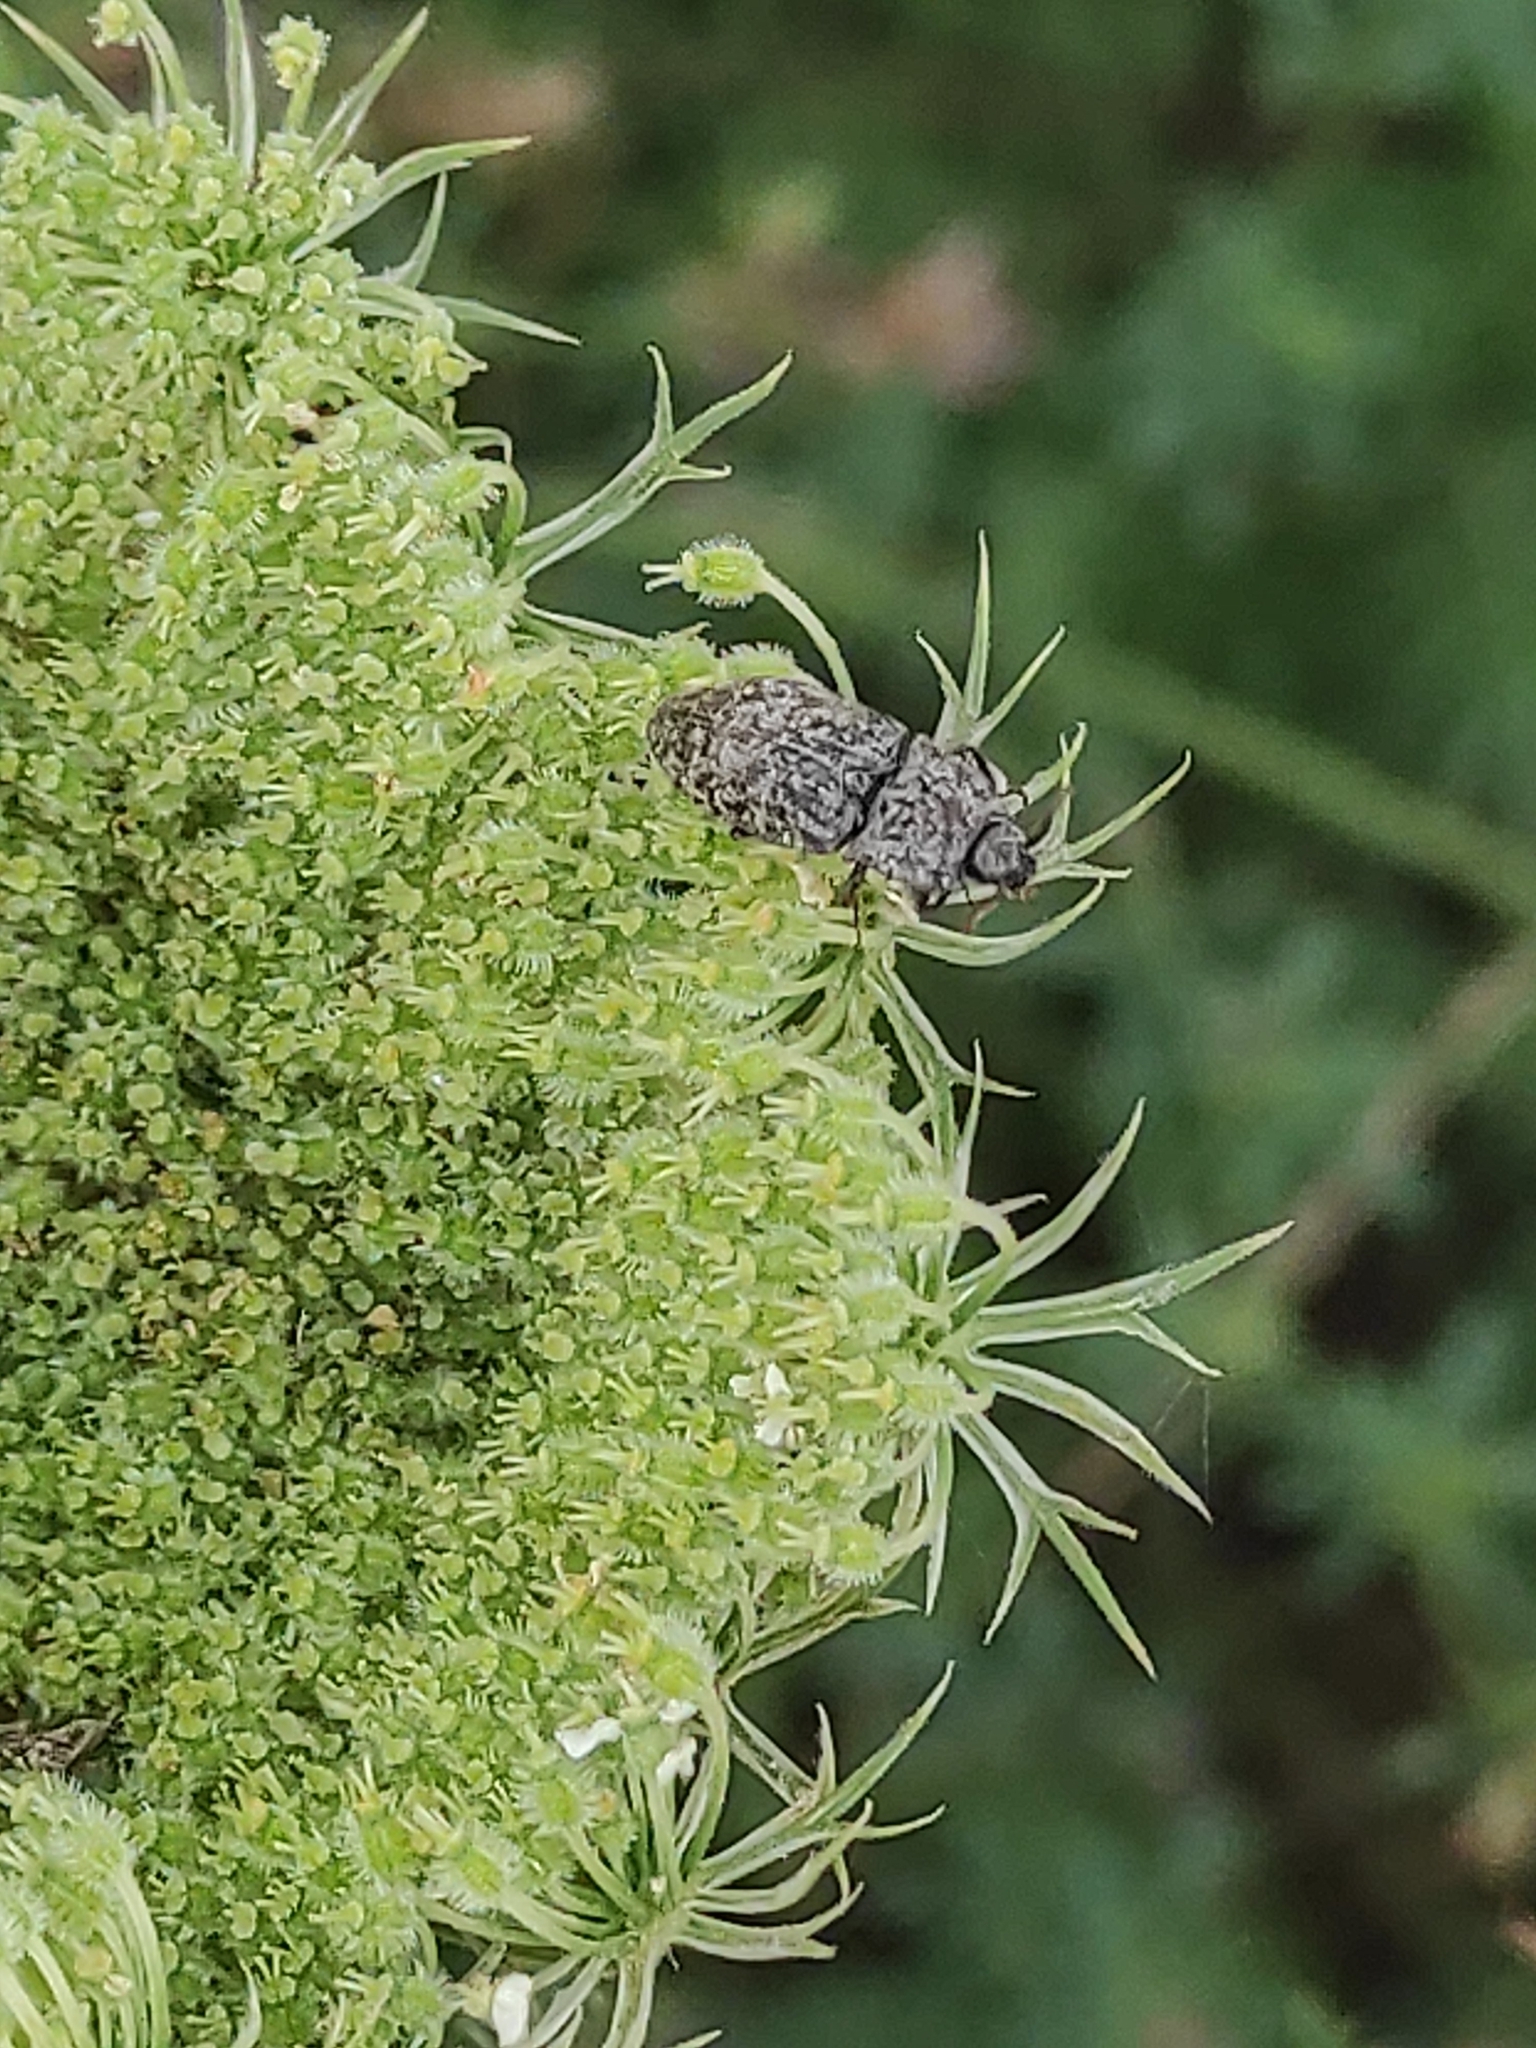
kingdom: Animalia
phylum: Arthropoda
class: Insecta
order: Coleoptera
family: Elateridae
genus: Agrypnus
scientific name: Agrypnus murinus
